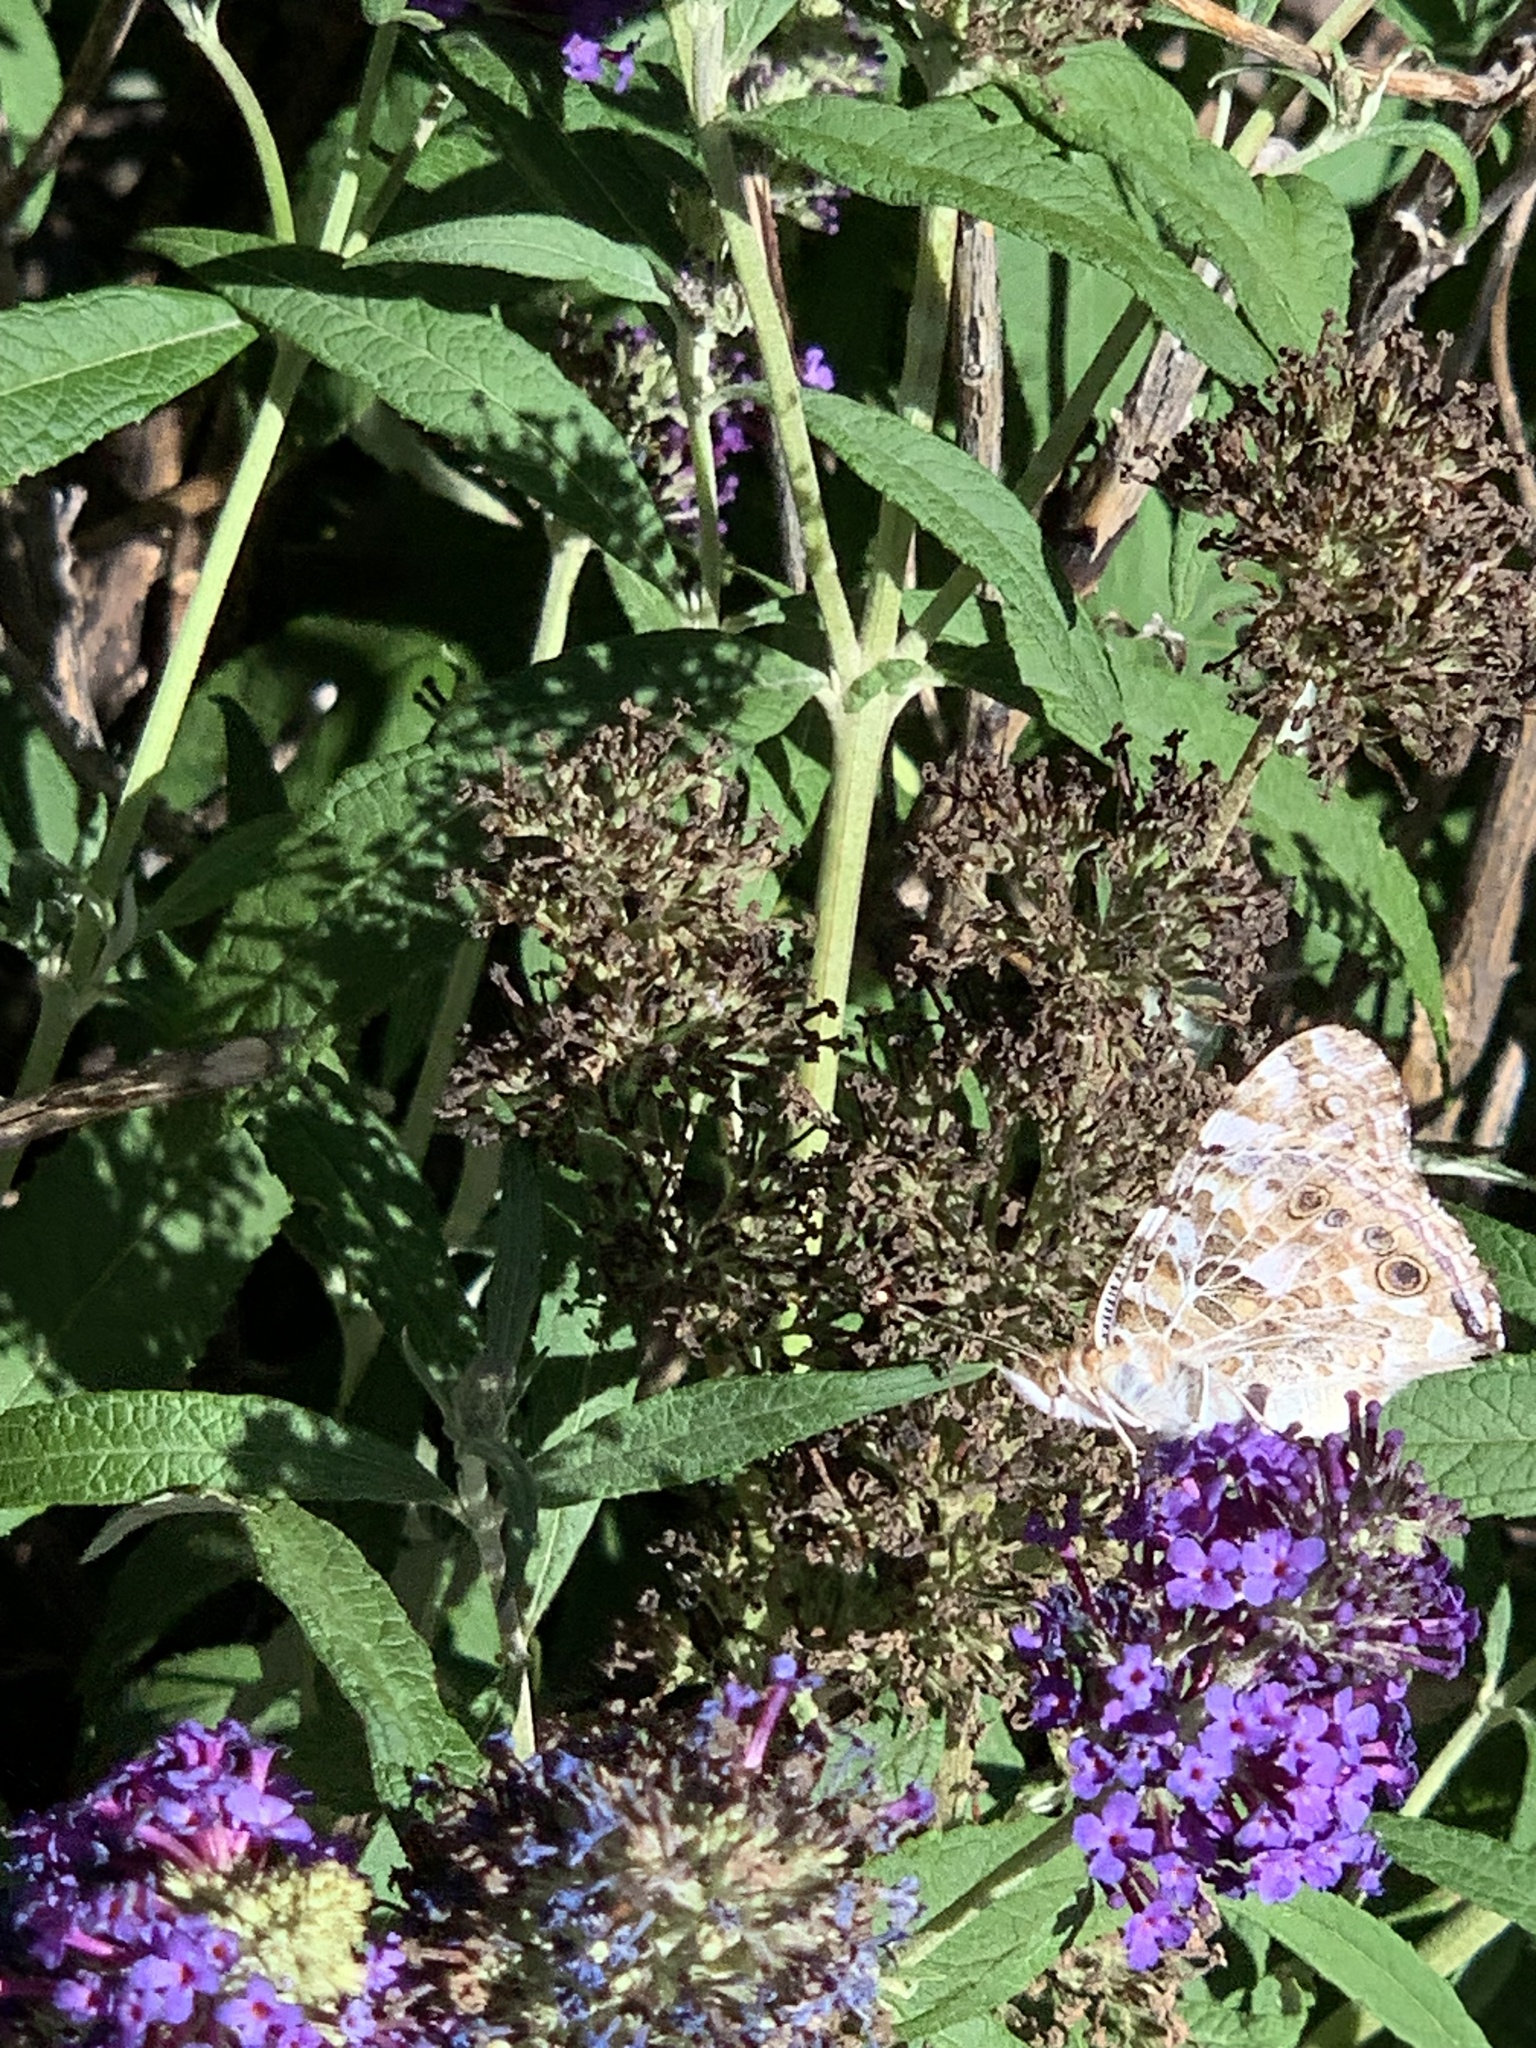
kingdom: Animalia
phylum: Arthropoda
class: Insecta
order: Lepidoptera
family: Nymphalidae
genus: Vanessa
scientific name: Vanessa cardui
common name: Painted lady
